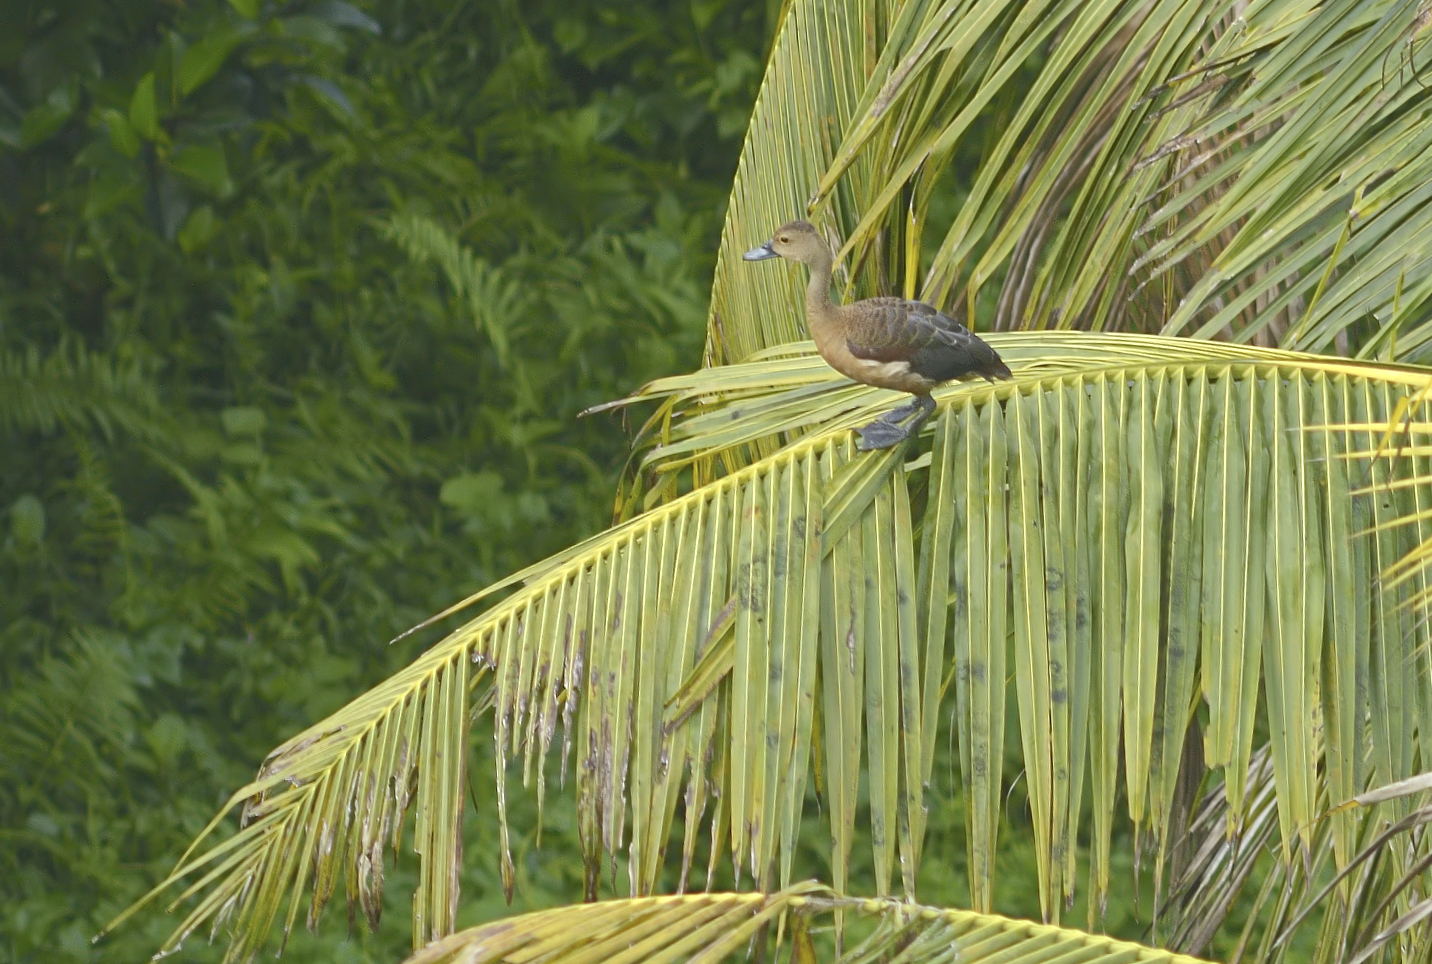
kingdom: Animalia
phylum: Chordata
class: Aves
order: Anseriformes
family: Anatidae
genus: Dendrocygna
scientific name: Dendrocygna javanica
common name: Lesser whistling-duck
